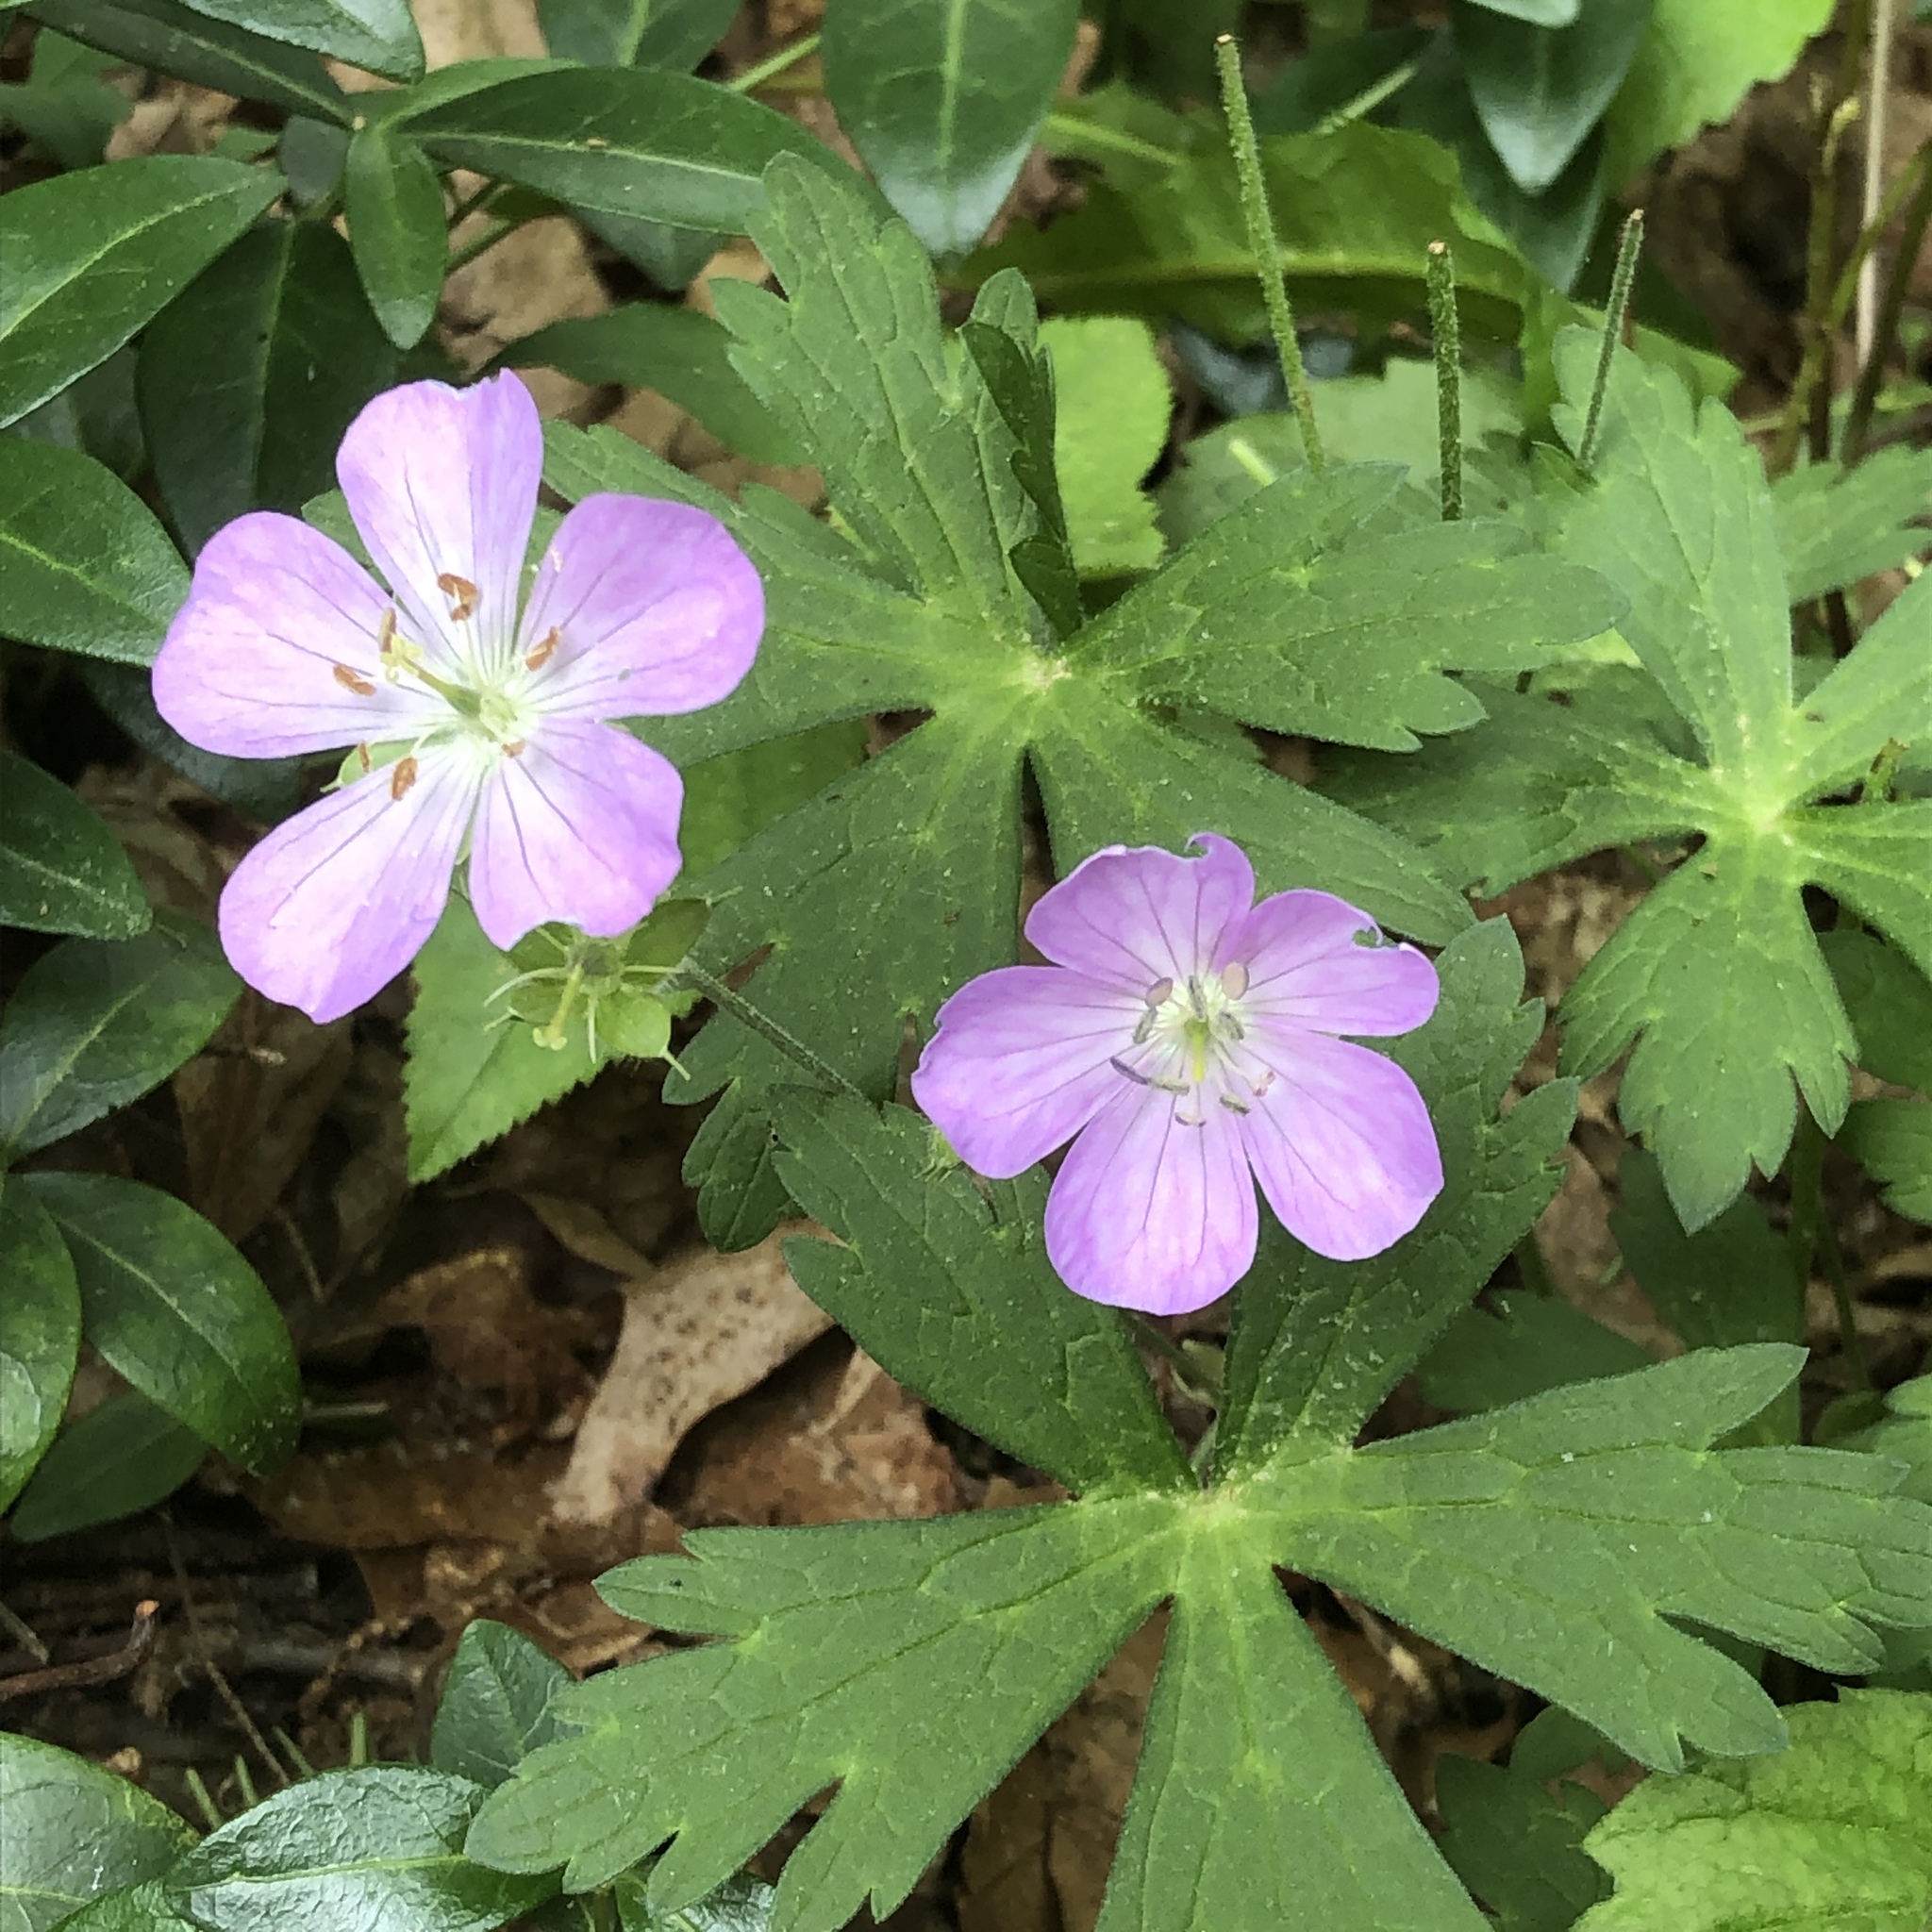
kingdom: Plantae
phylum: Tracheophyta
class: Magnoliopsida
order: Geraniales
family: Geraniaceae
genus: Geranium
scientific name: Geranium maculatum
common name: Spotted geranium
